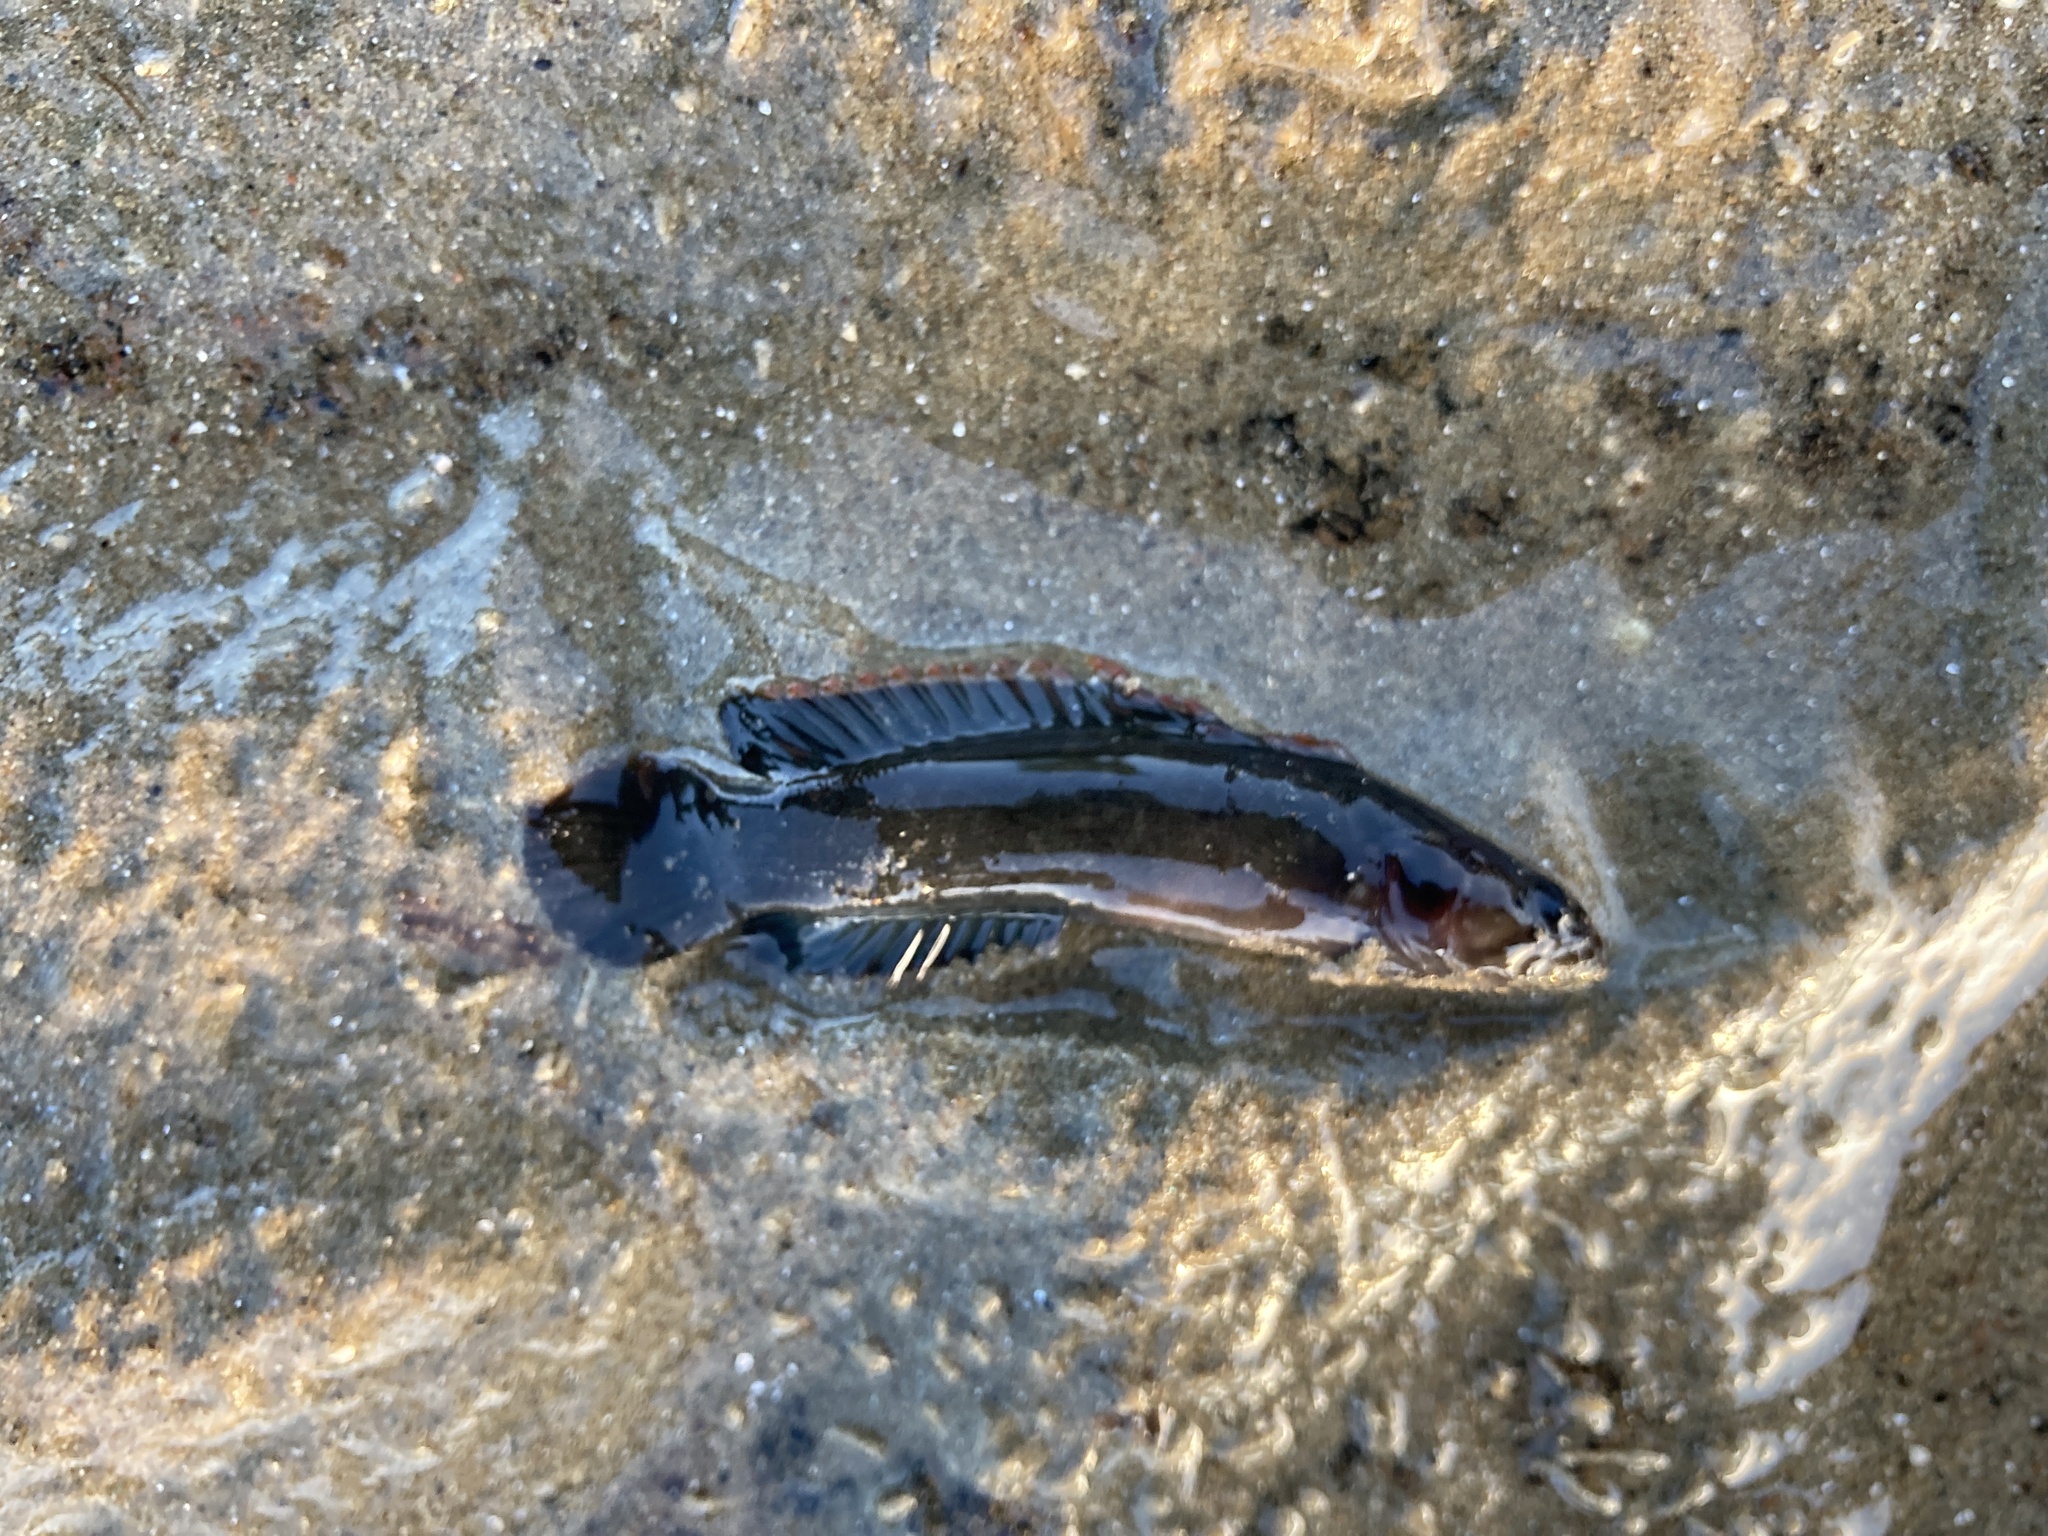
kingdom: Animalia
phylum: Chordata
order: Perciformes
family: Plesiopidae
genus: Acanthoclinus
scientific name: Acanthoclinus marilynae
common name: Stout rockfish
